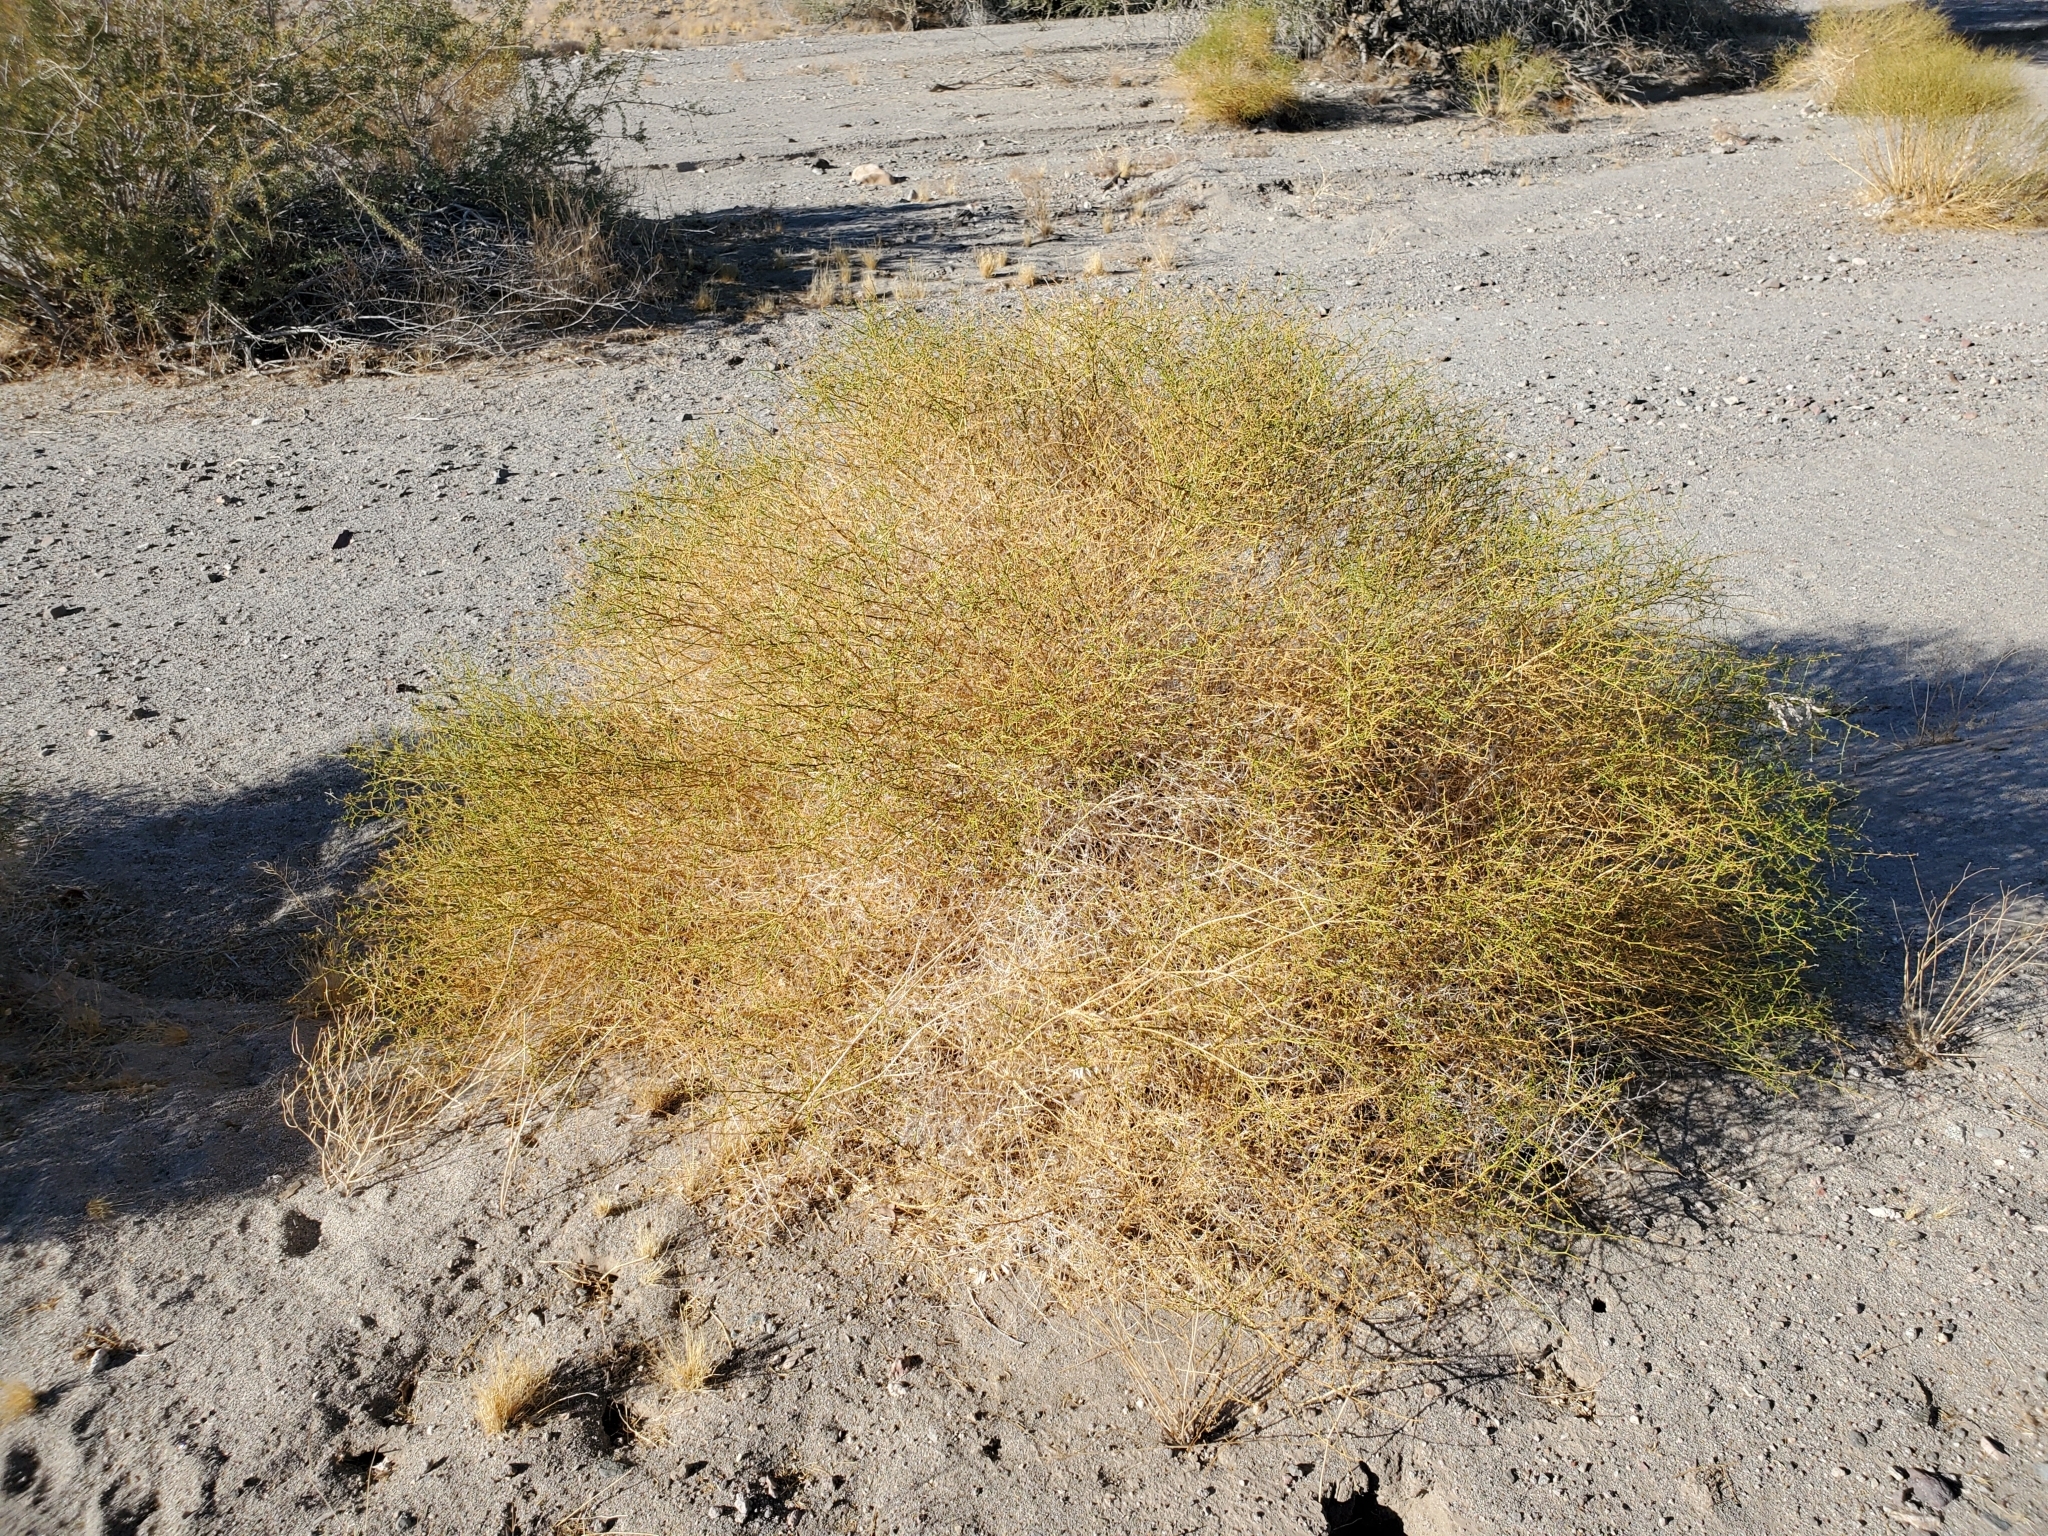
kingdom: Plantae
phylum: Tracheophyta
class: Magnoliopsida
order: Asterales
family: Asteraceae
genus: Ambrosia
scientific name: Ambrosia salsola
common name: Burrobrush
